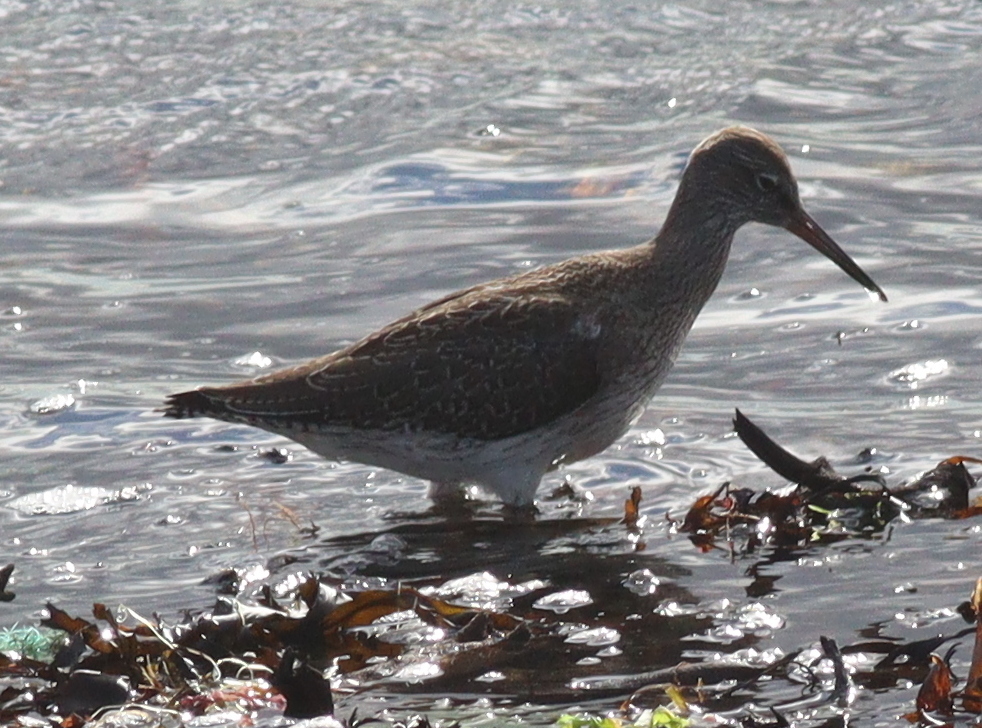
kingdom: Animalia
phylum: Chordata
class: Aves
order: Charadriiformes
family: Scolopacidae
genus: Tringa
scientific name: Tringa totanus
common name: Common redshank
